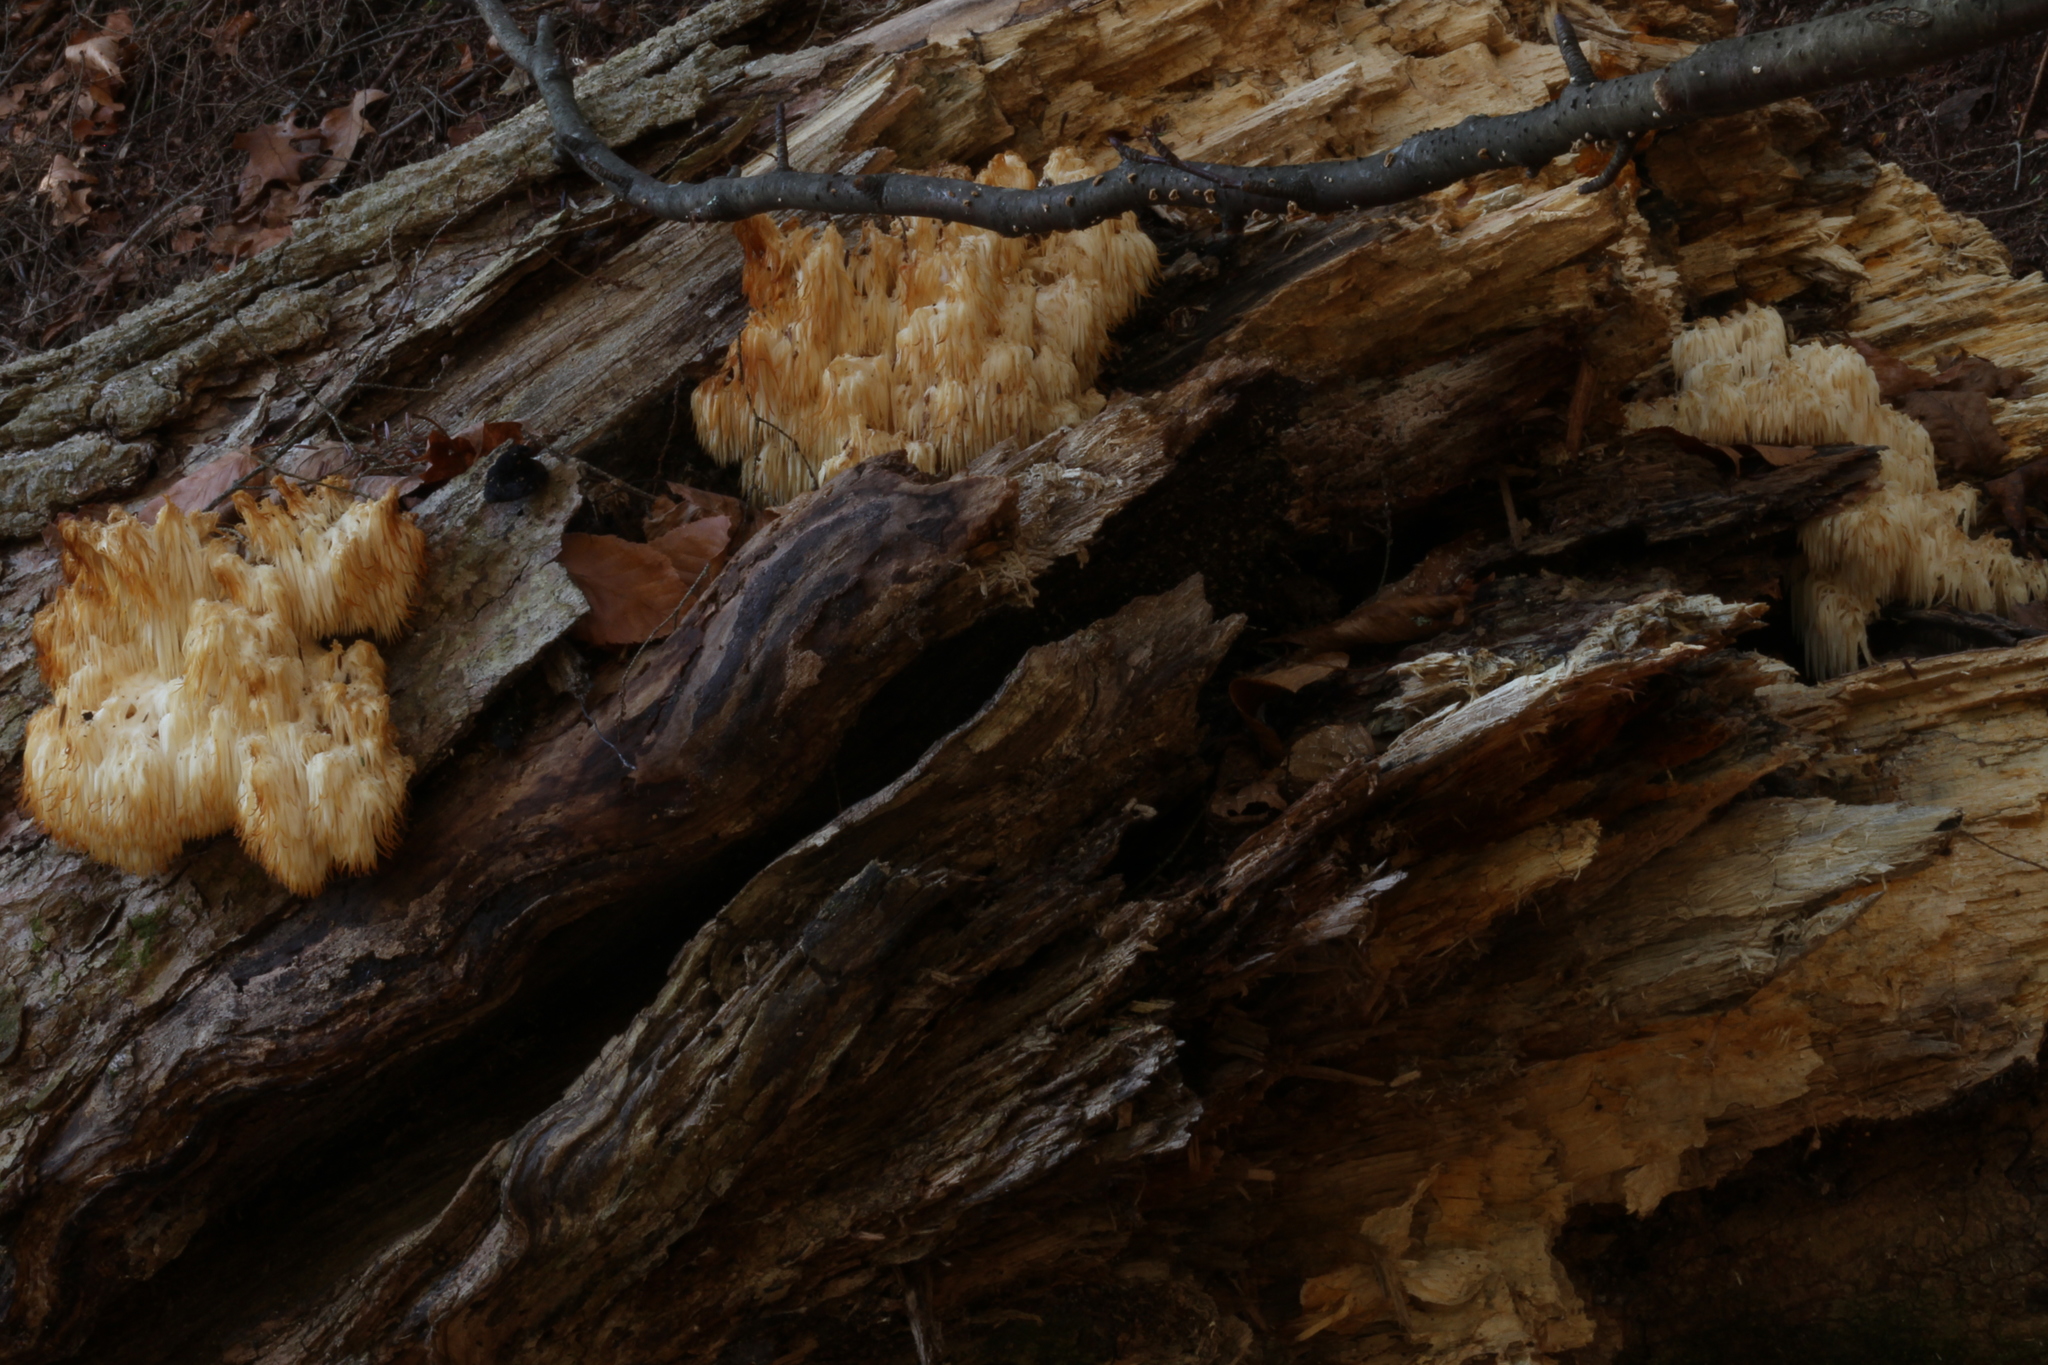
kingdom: Fungi
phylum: Basidiomycota
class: Agaricomycetes
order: Russulales
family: Hericiaceae
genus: Hericium
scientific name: Hericium americanum
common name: Bear's head tooth
